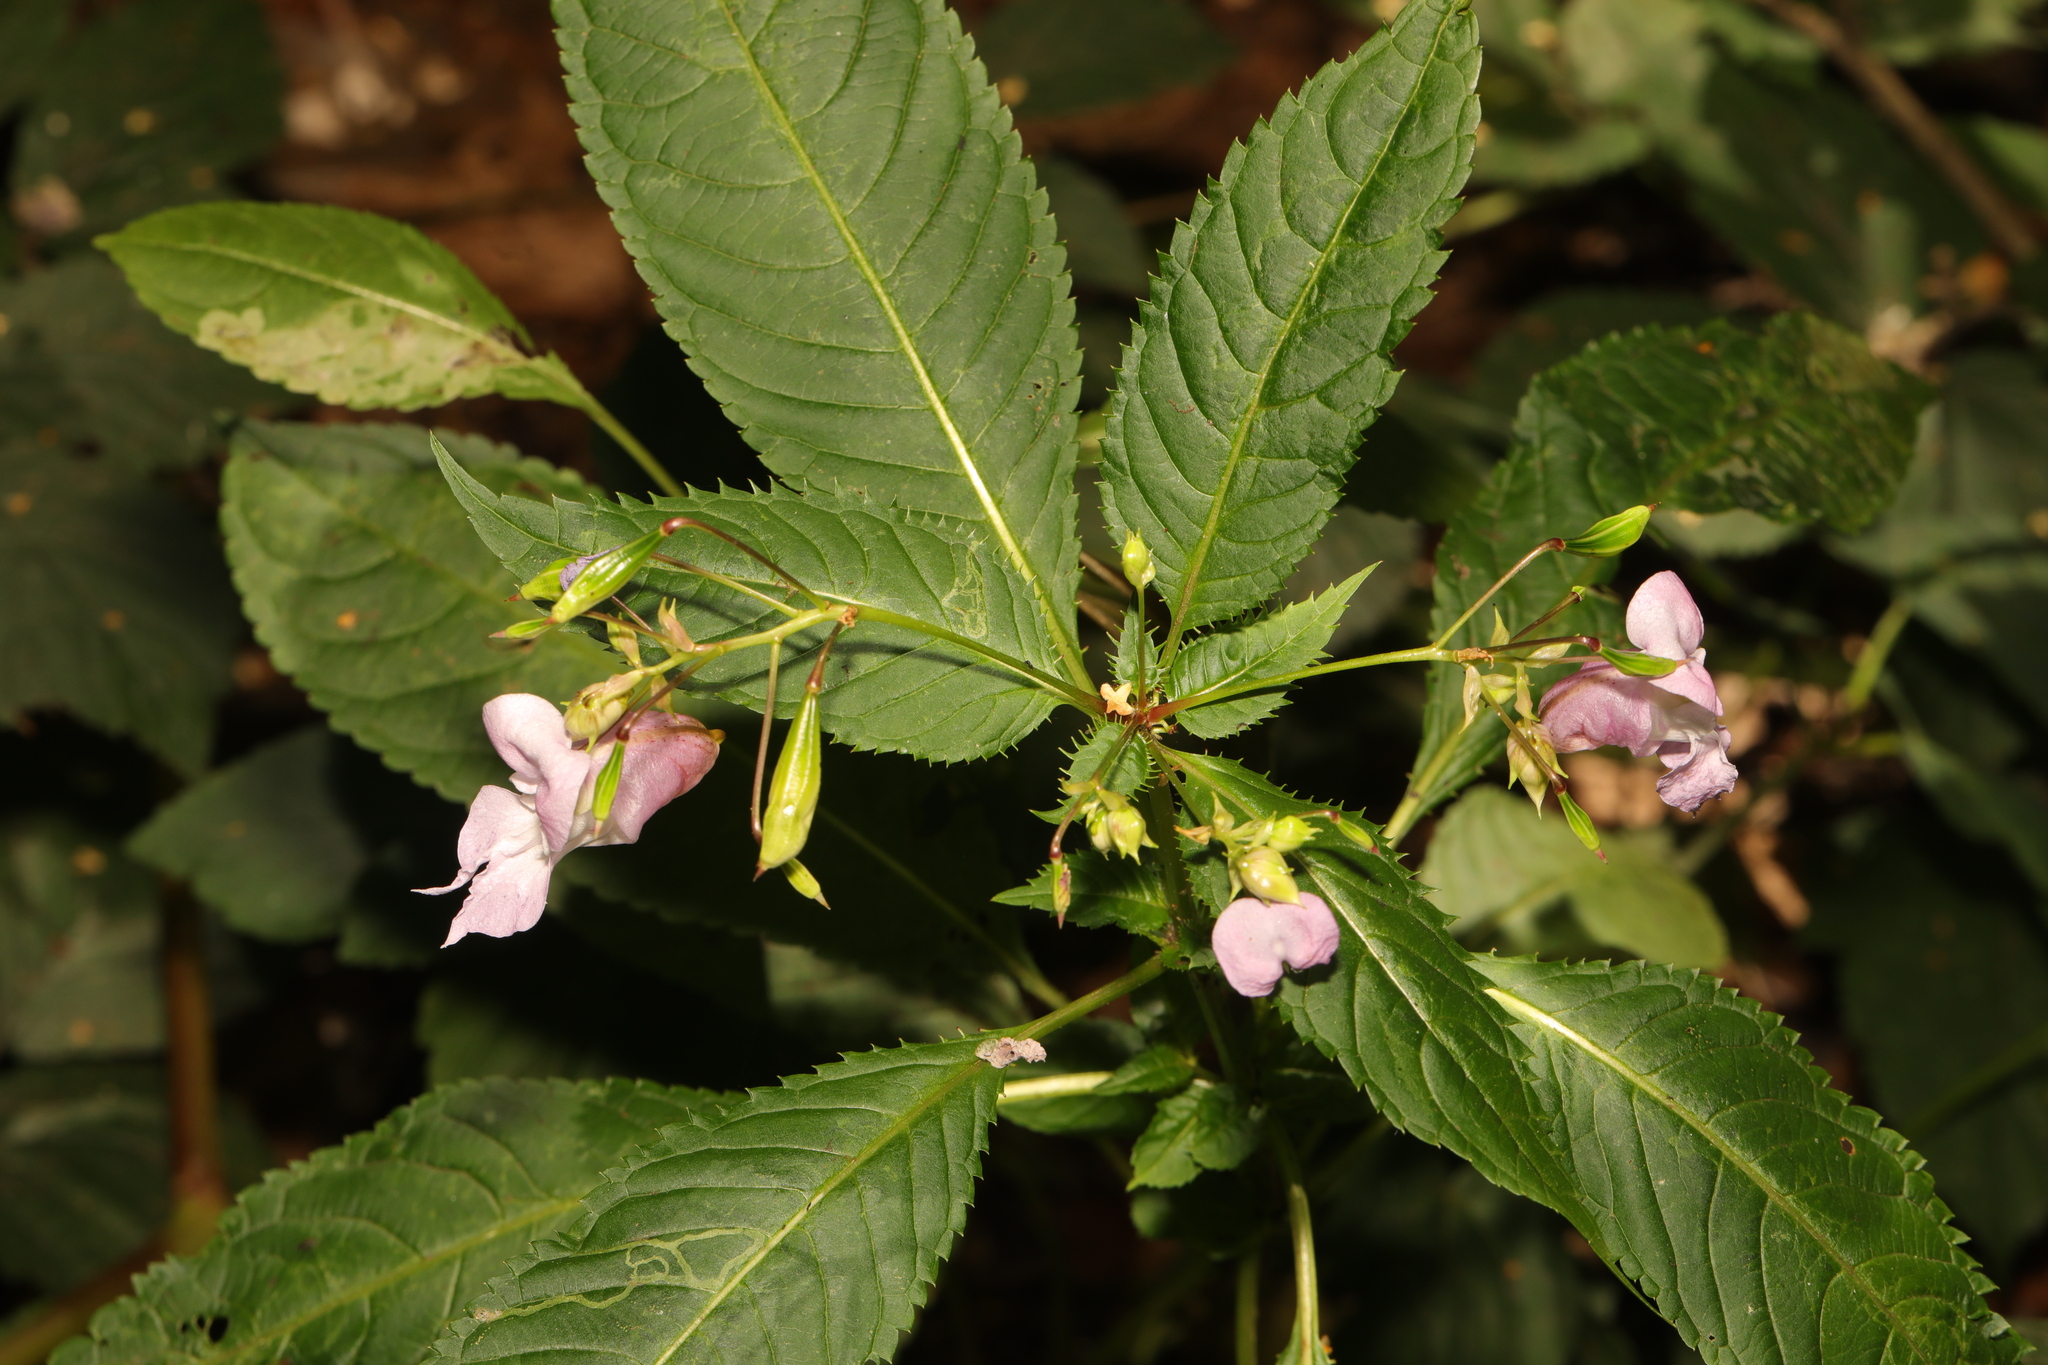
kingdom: Plantae
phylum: Tracheophyta
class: Magnoliopsida
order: Ericales
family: Balsaminaceae
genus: Impatiens
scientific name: Impatiens glandulifera
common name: Himalayan balsam
